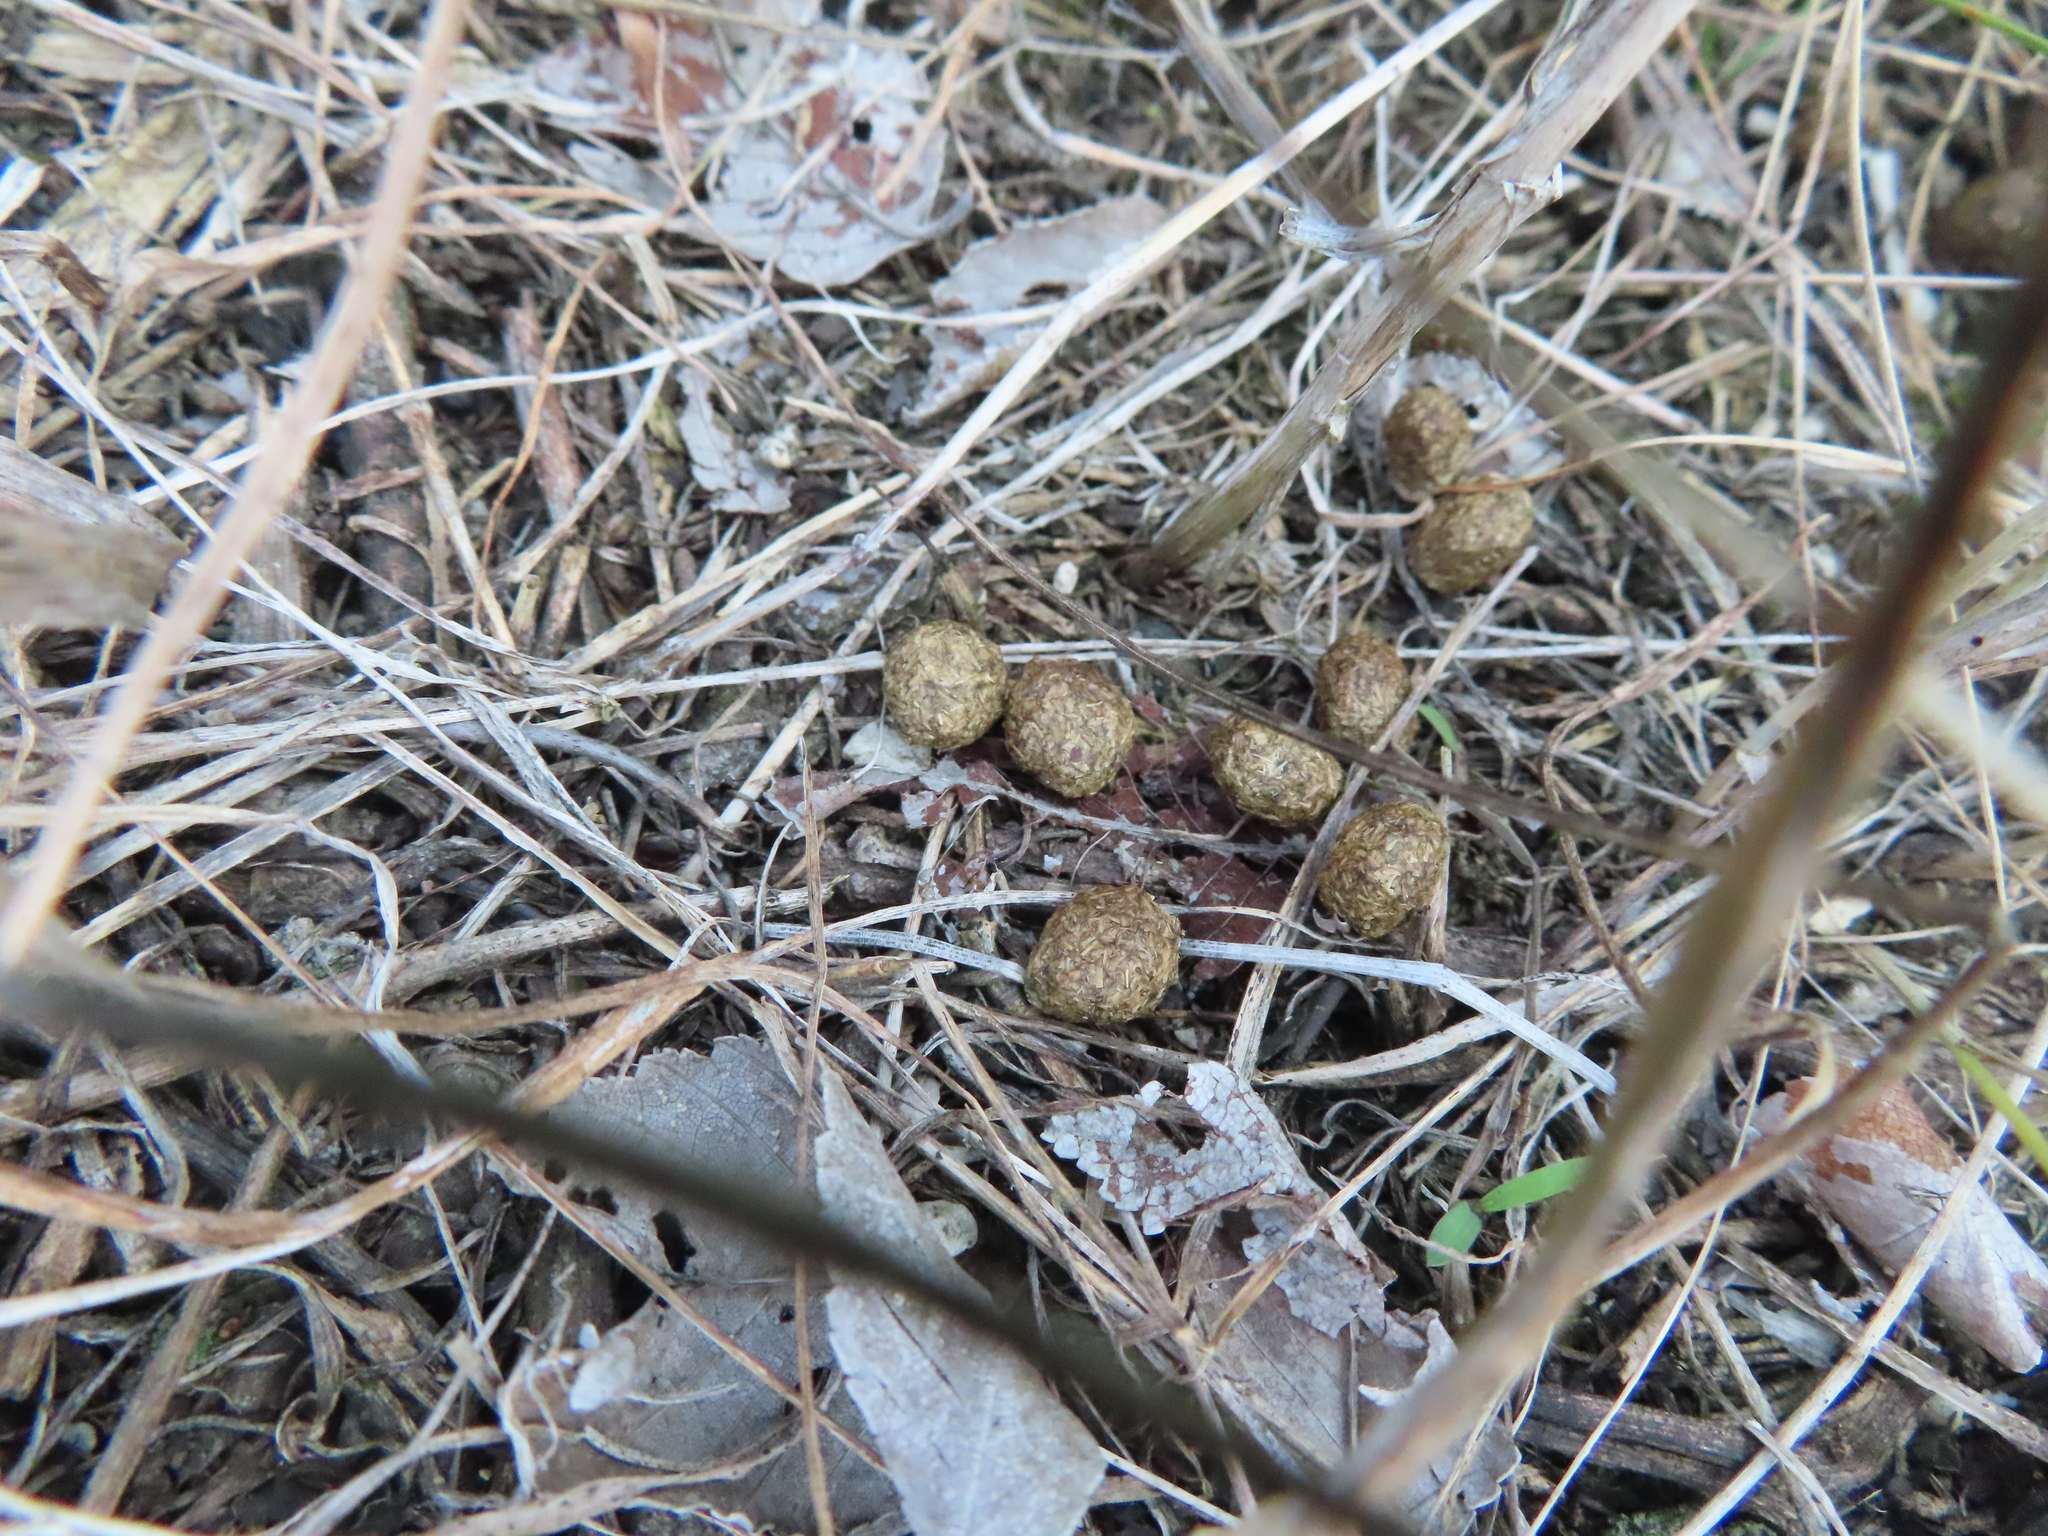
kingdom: Animalia
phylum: Chordata
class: Mammalia
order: Lagomorpha
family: Leporidae
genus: Sylvilagus
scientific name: Sylvilagus floridanus
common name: Eastern cottontail
